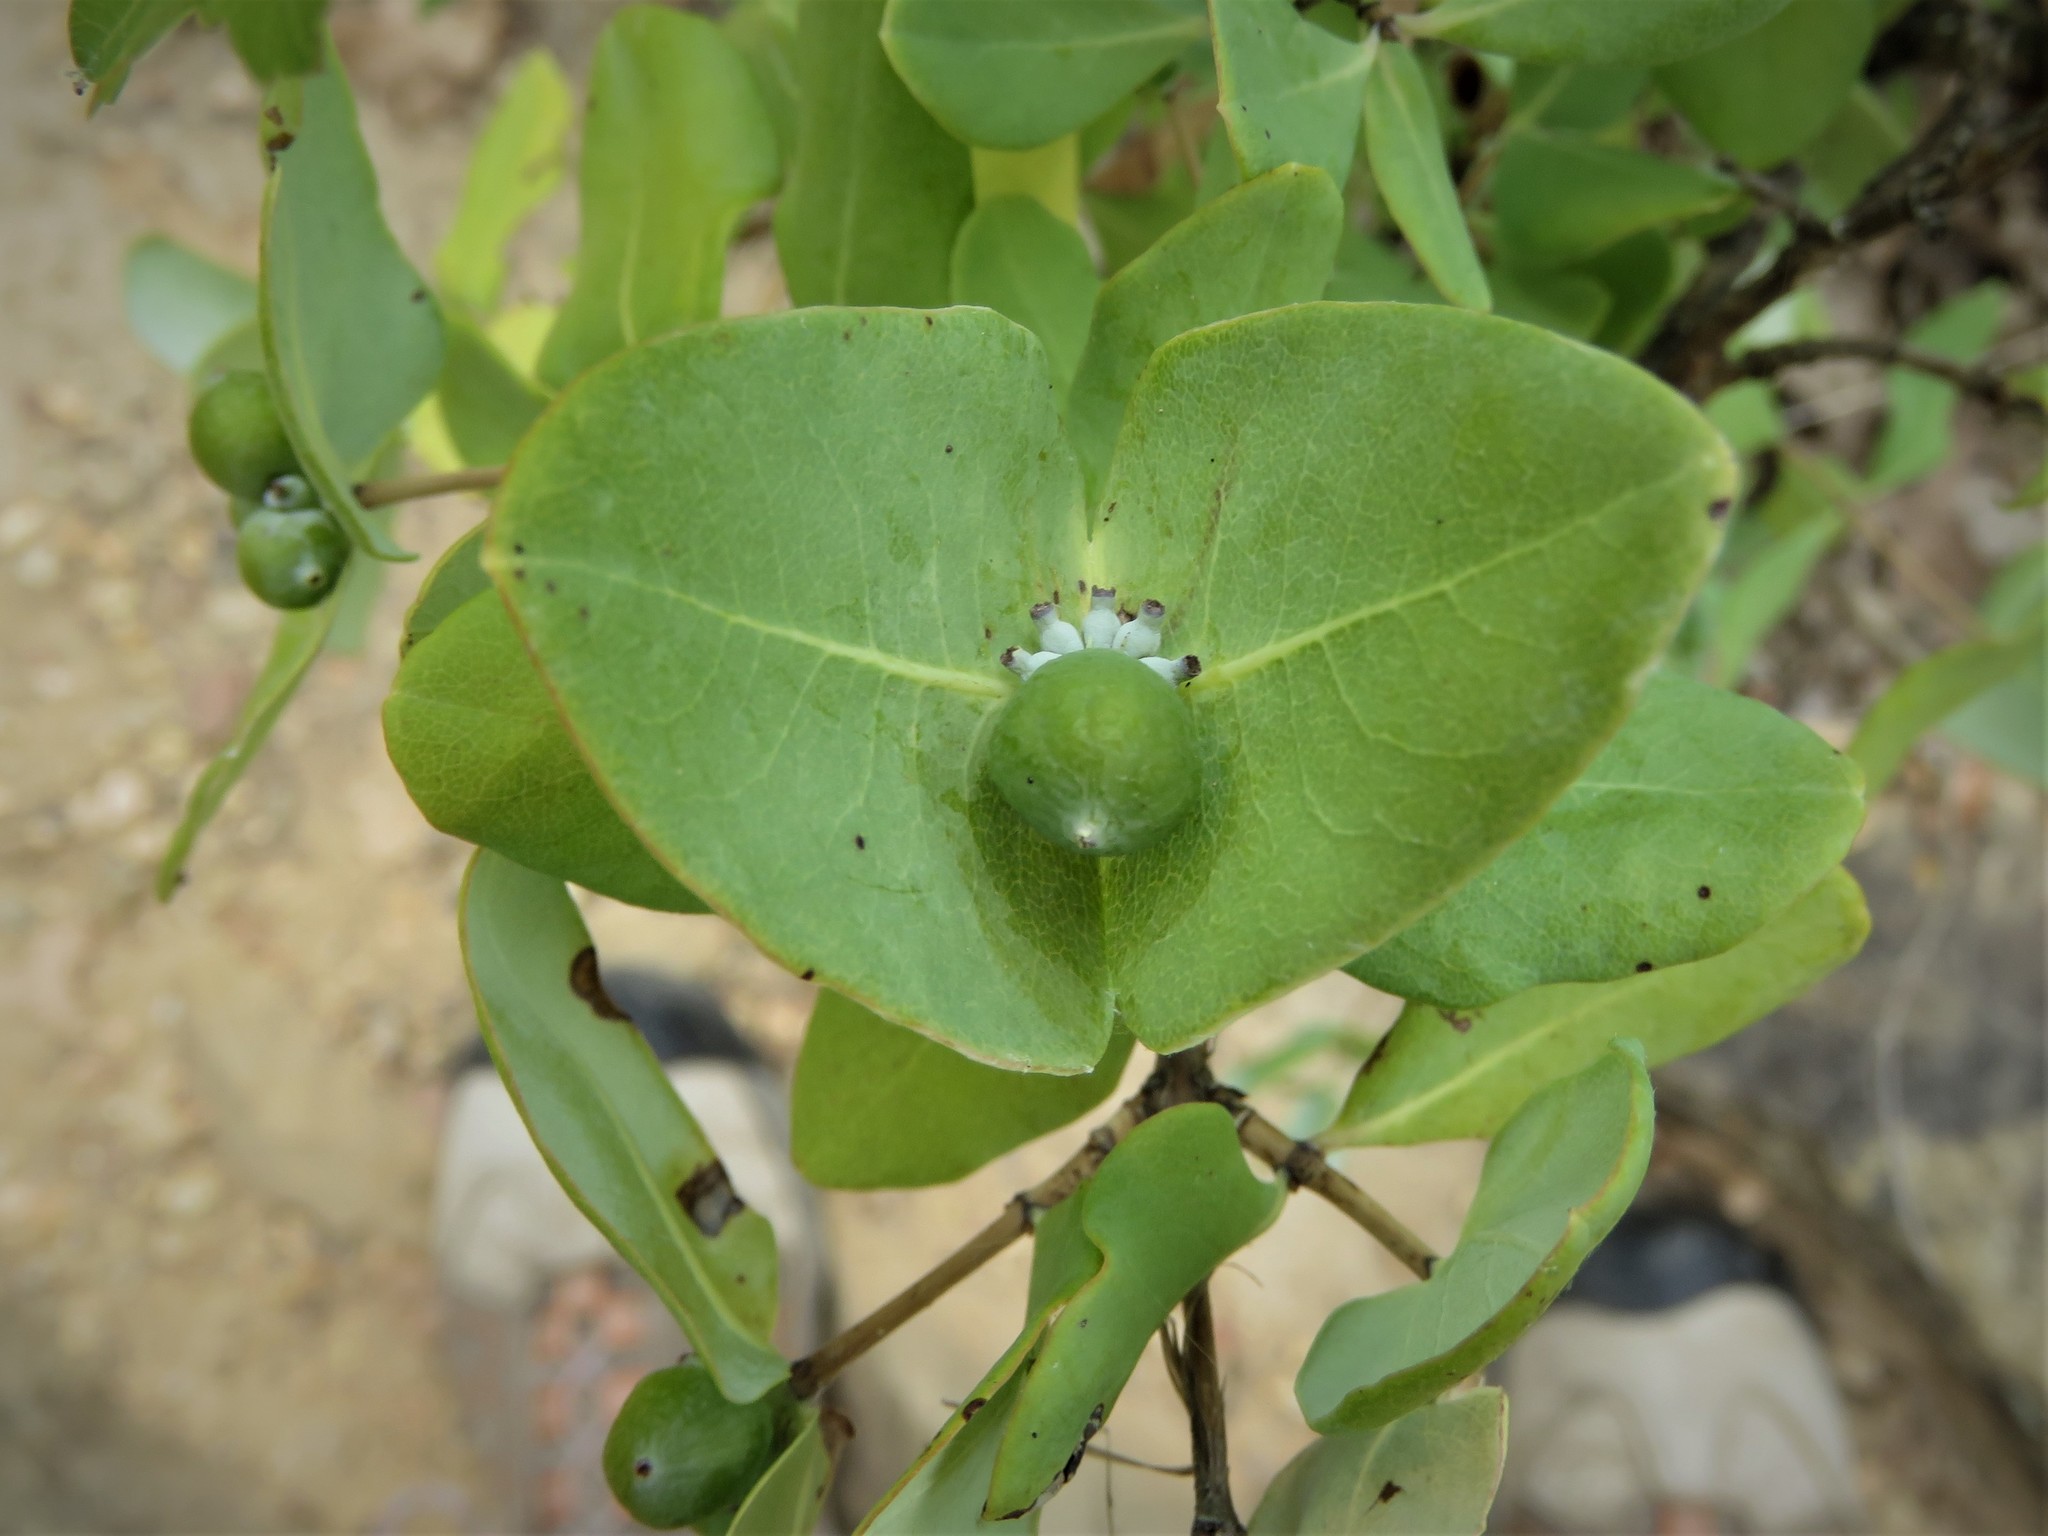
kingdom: Plantae
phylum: Tracheophyta
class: Magnoliopsida
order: Dipsacales
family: Caprifoliaceae
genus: Lonicera
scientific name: Lonicera albiflora
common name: White honeysuckle
